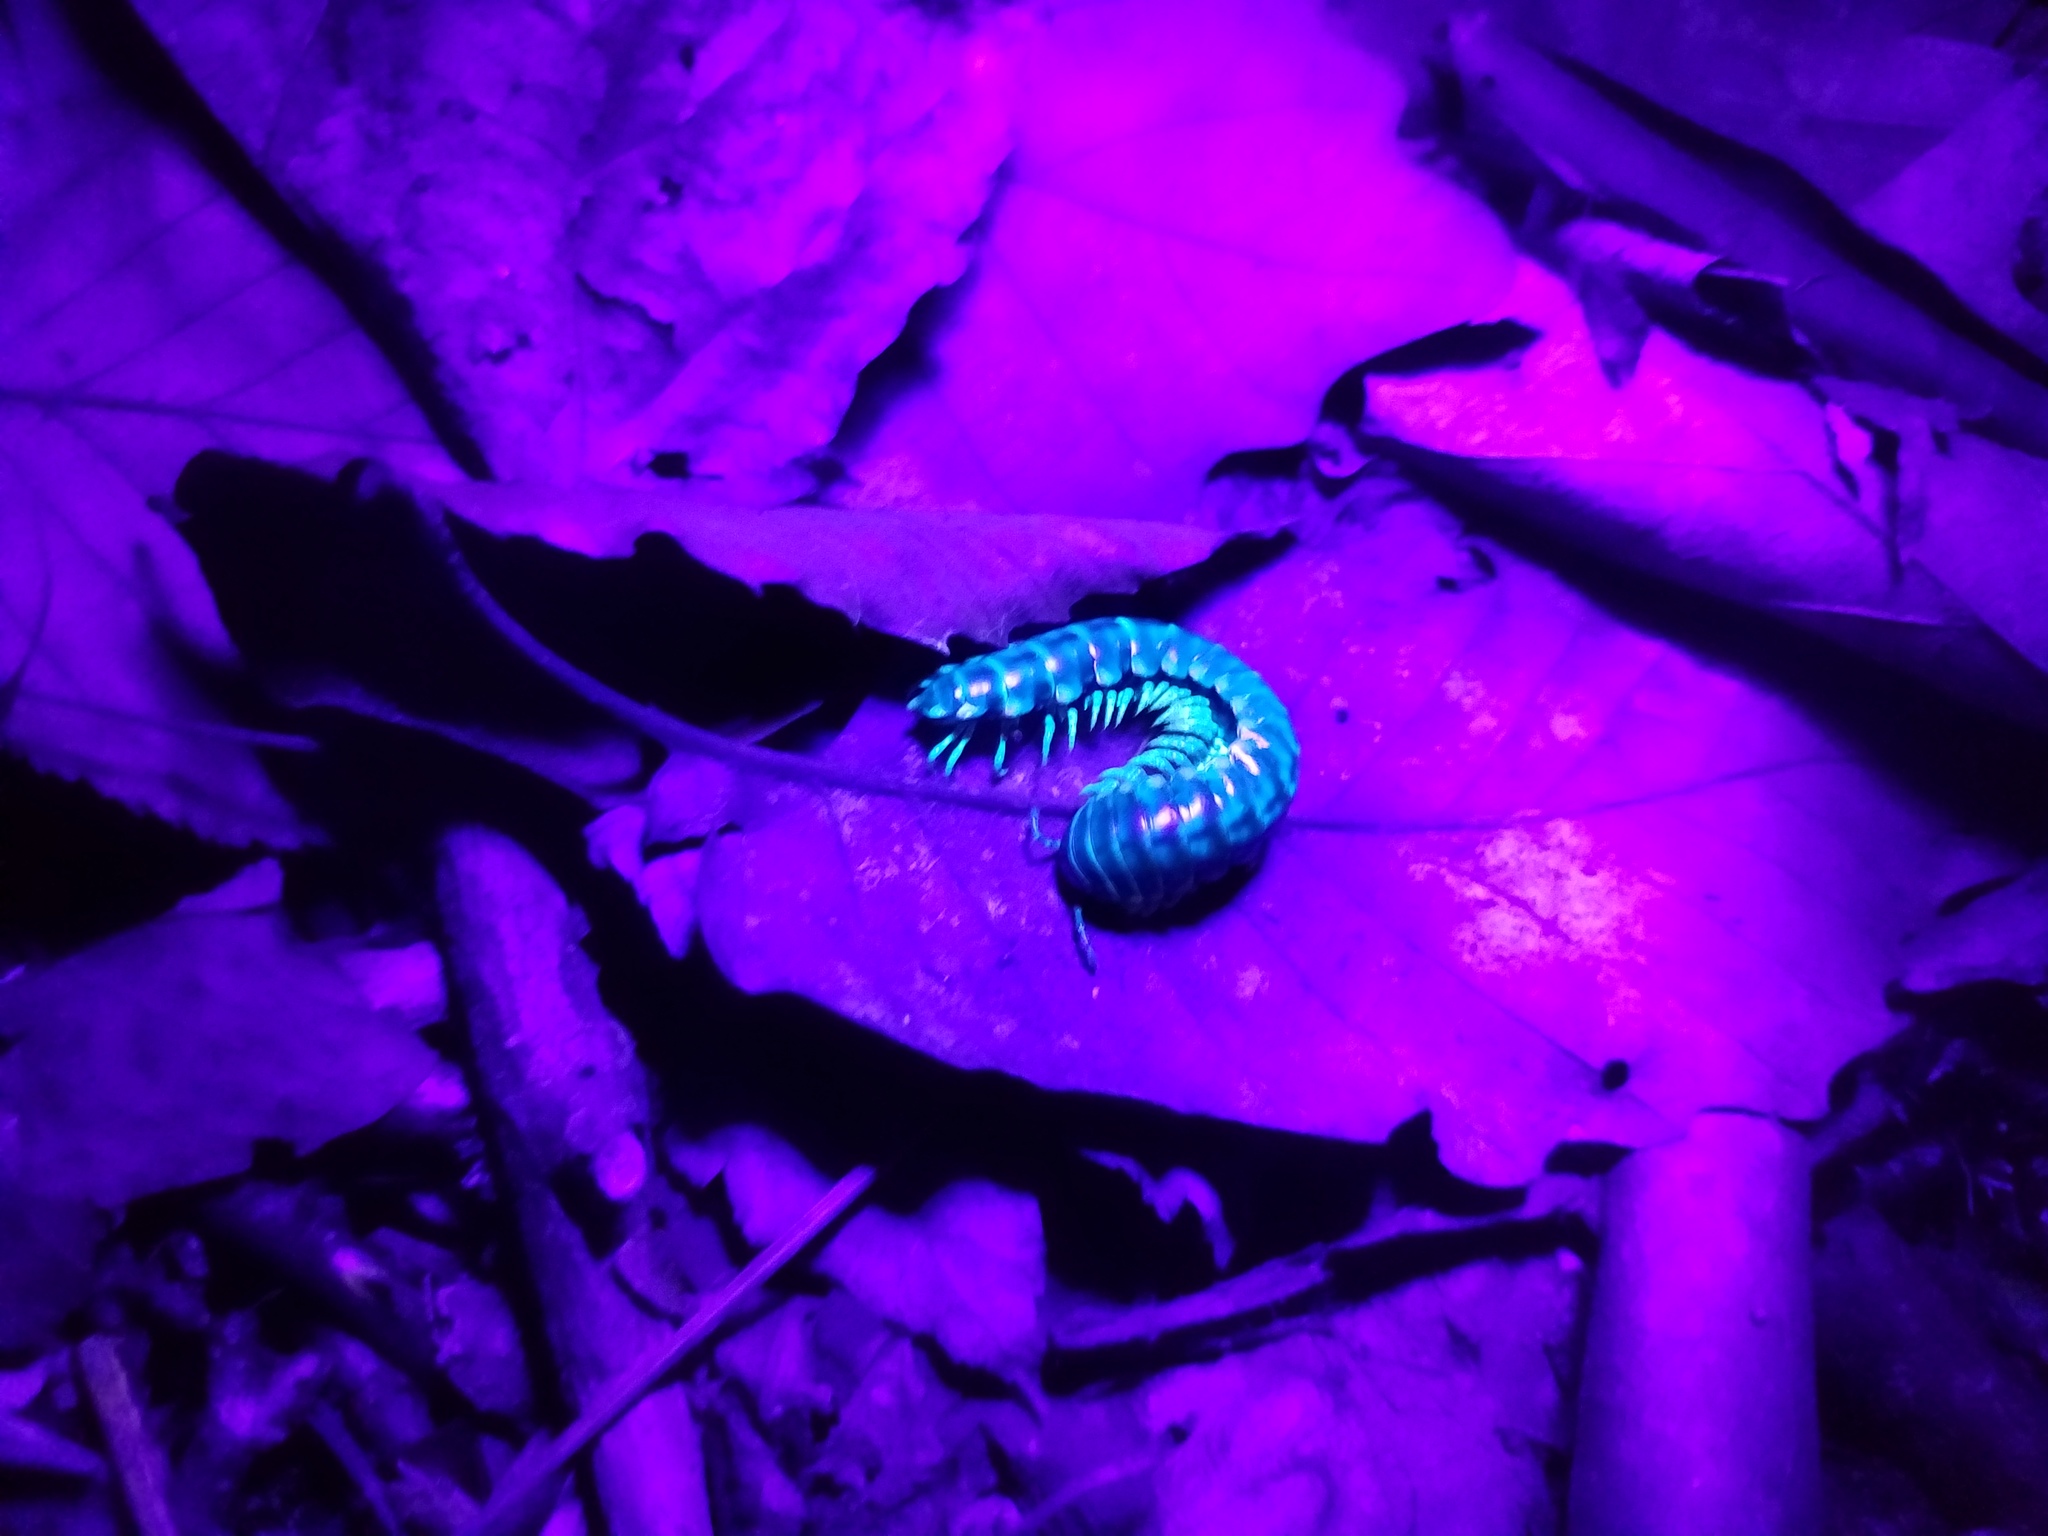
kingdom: Animalia
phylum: Arthropoda
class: Diplopoda
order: Polydesmida
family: Xystodesmidae
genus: Dixioria
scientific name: Dixioria pela
